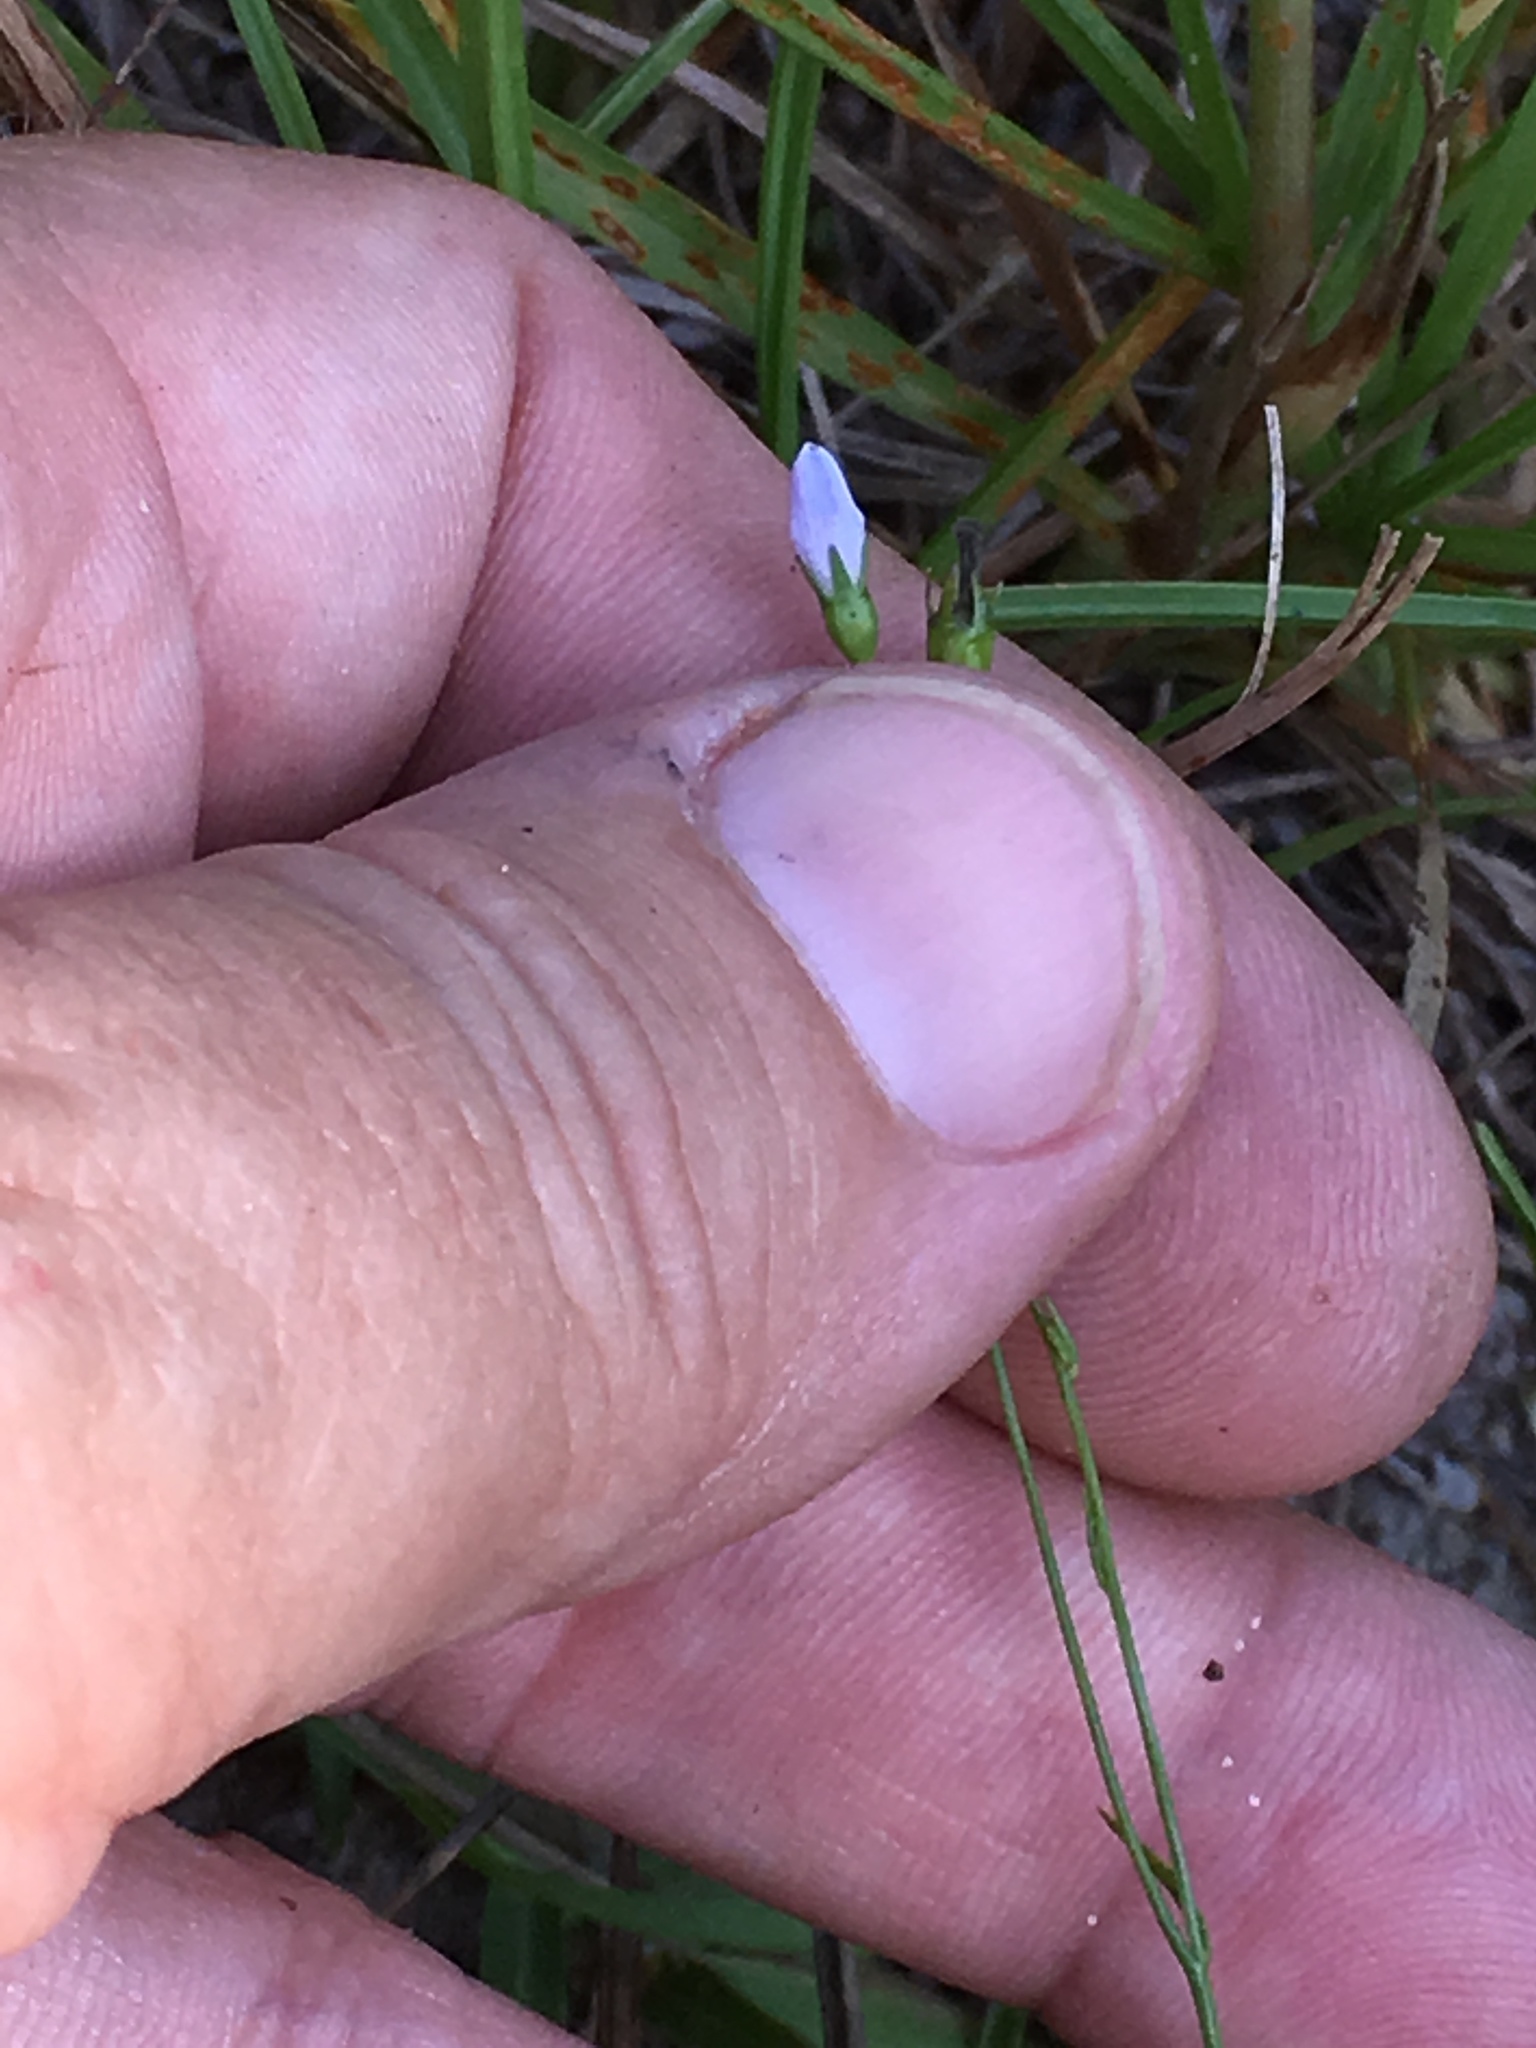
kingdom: Plantae
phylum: Tracheophyta
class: Magnoliopsida
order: Asterales
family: Campanulaceae
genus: Wahlenbergia
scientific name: Wahlenbergia marginata
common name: Southern rockbell
